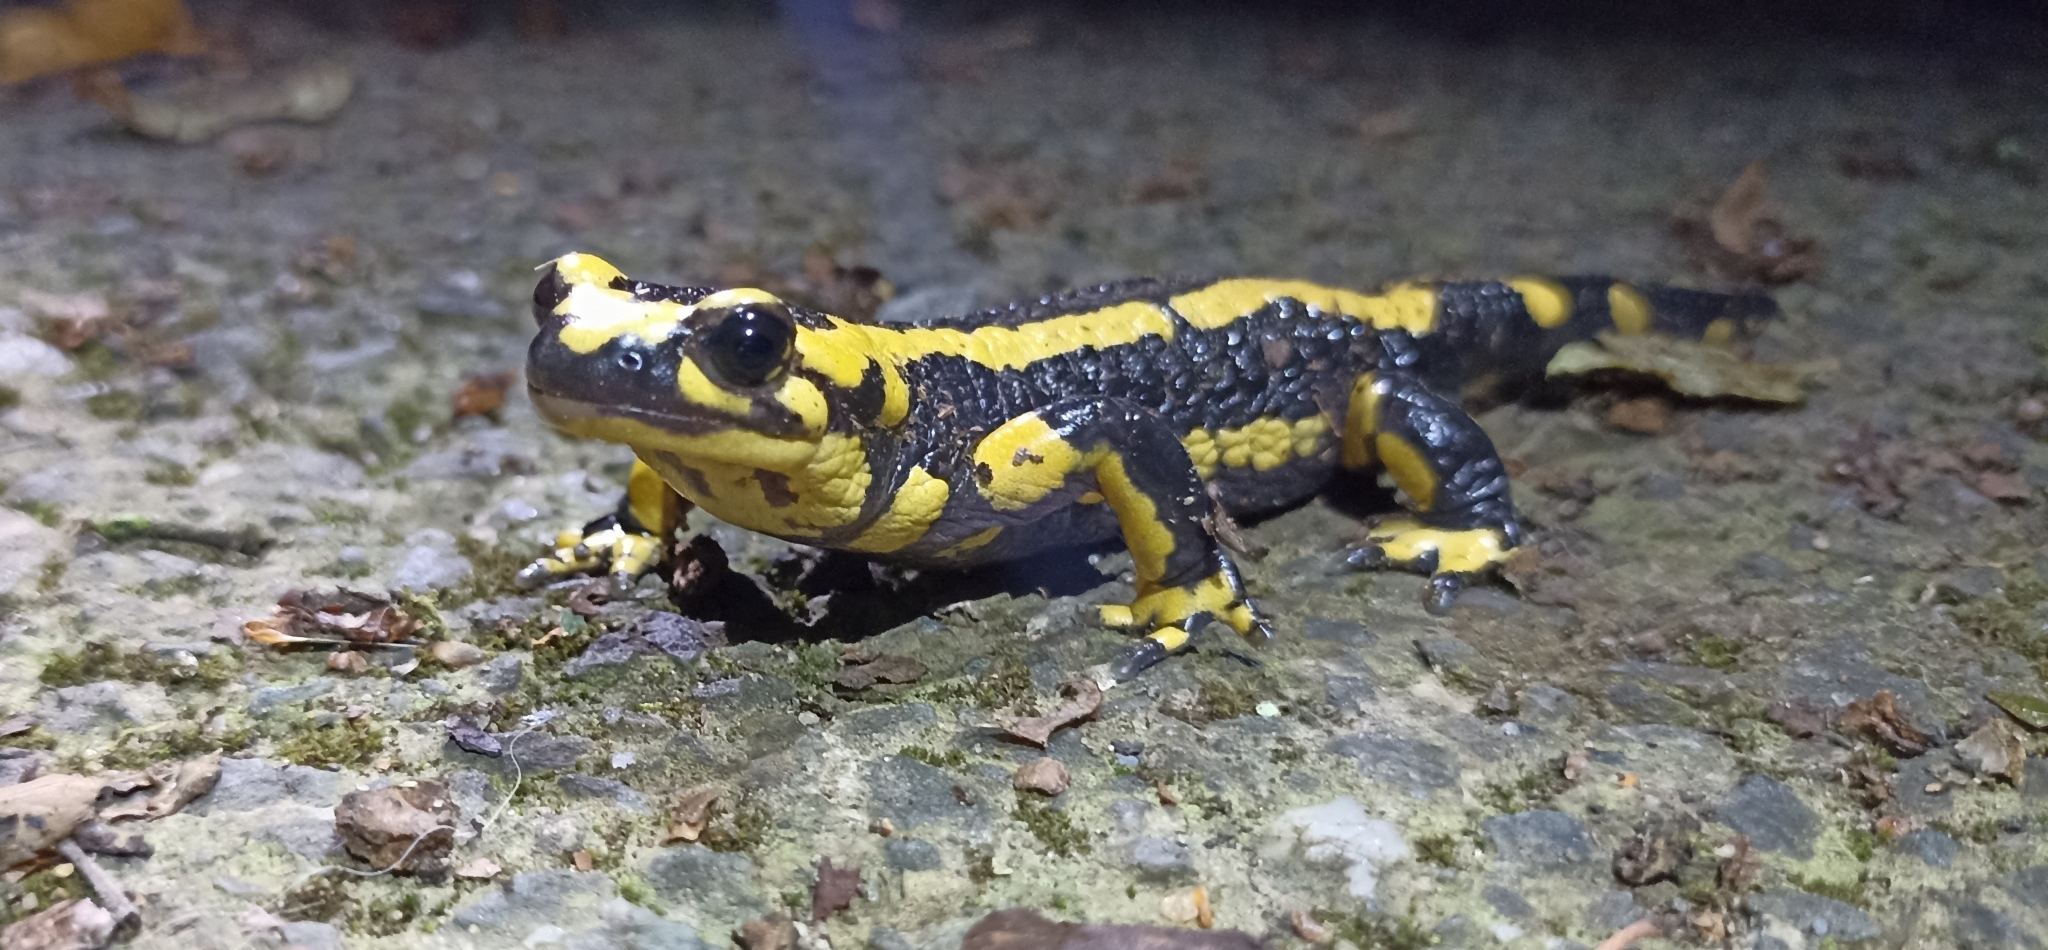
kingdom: Animalia
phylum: Chordata
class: Amphibia
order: Caudata
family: Salamandridae
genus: Salamandra
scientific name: Salamandra salamandra
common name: Fire salamander
